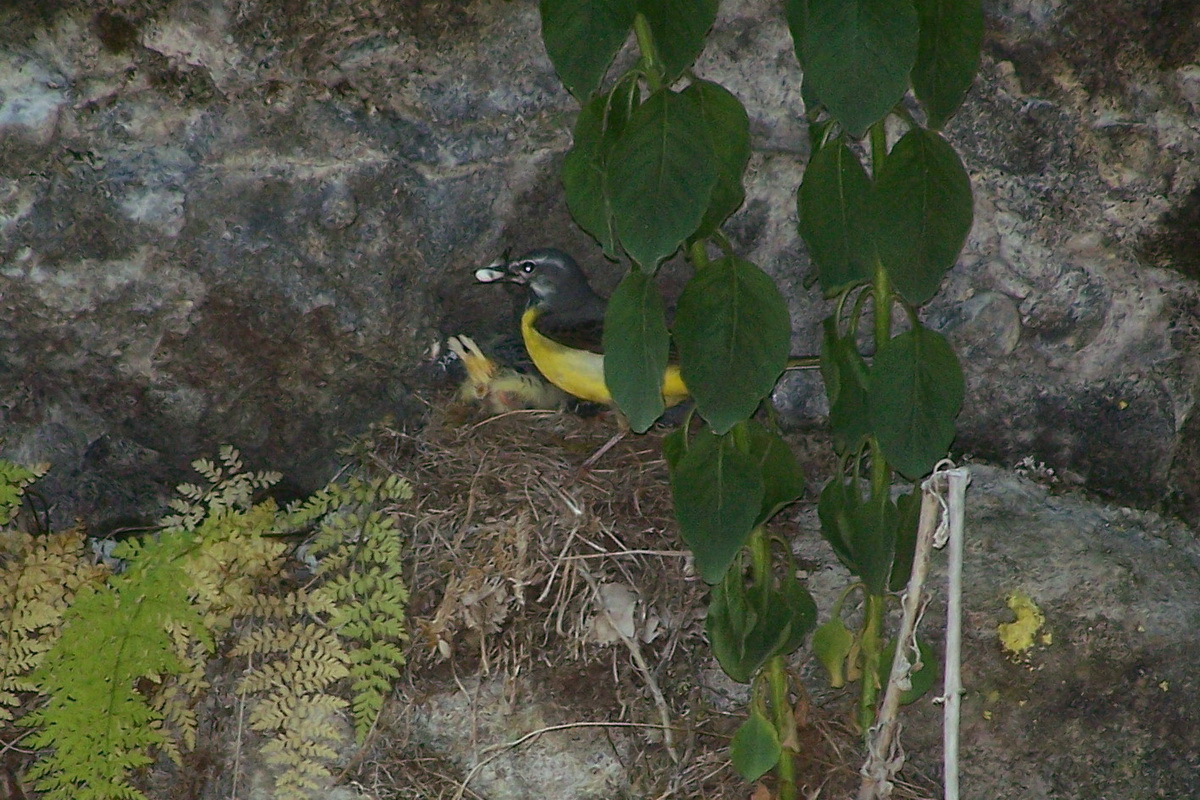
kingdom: Animalia
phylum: Chordata
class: Aves
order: Passeriformes
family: Motacillidae
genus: Motacilla
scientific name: Motacilla cinerea
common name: Grey wagtail
